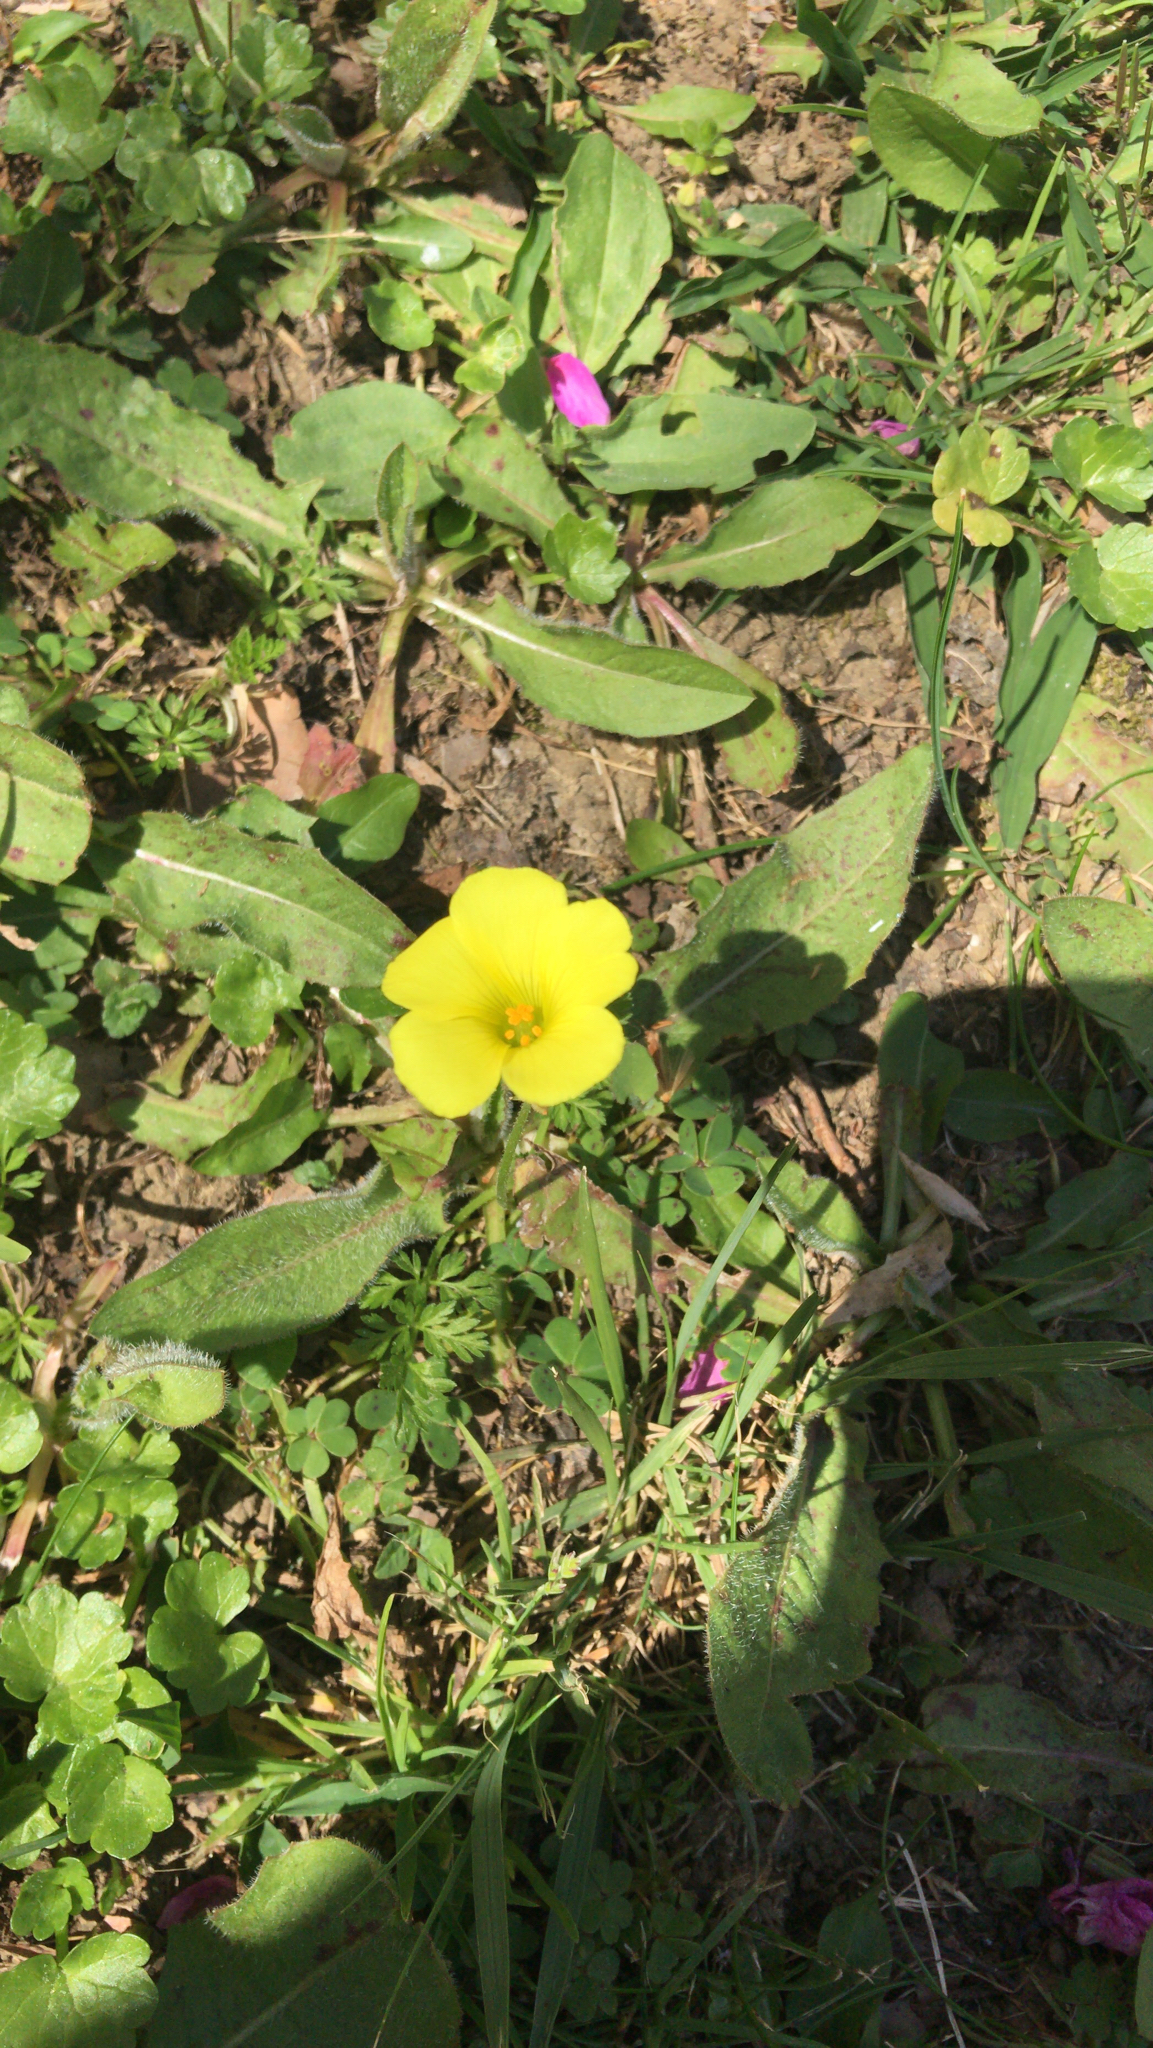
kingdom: Plantae
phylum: Tracheophyta
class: Magnoliopsida
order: Oxalidales
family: Oxalidaceae
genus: Oxalis
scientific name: Oxalis pes-caprae
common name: Bermuda-buttercup
